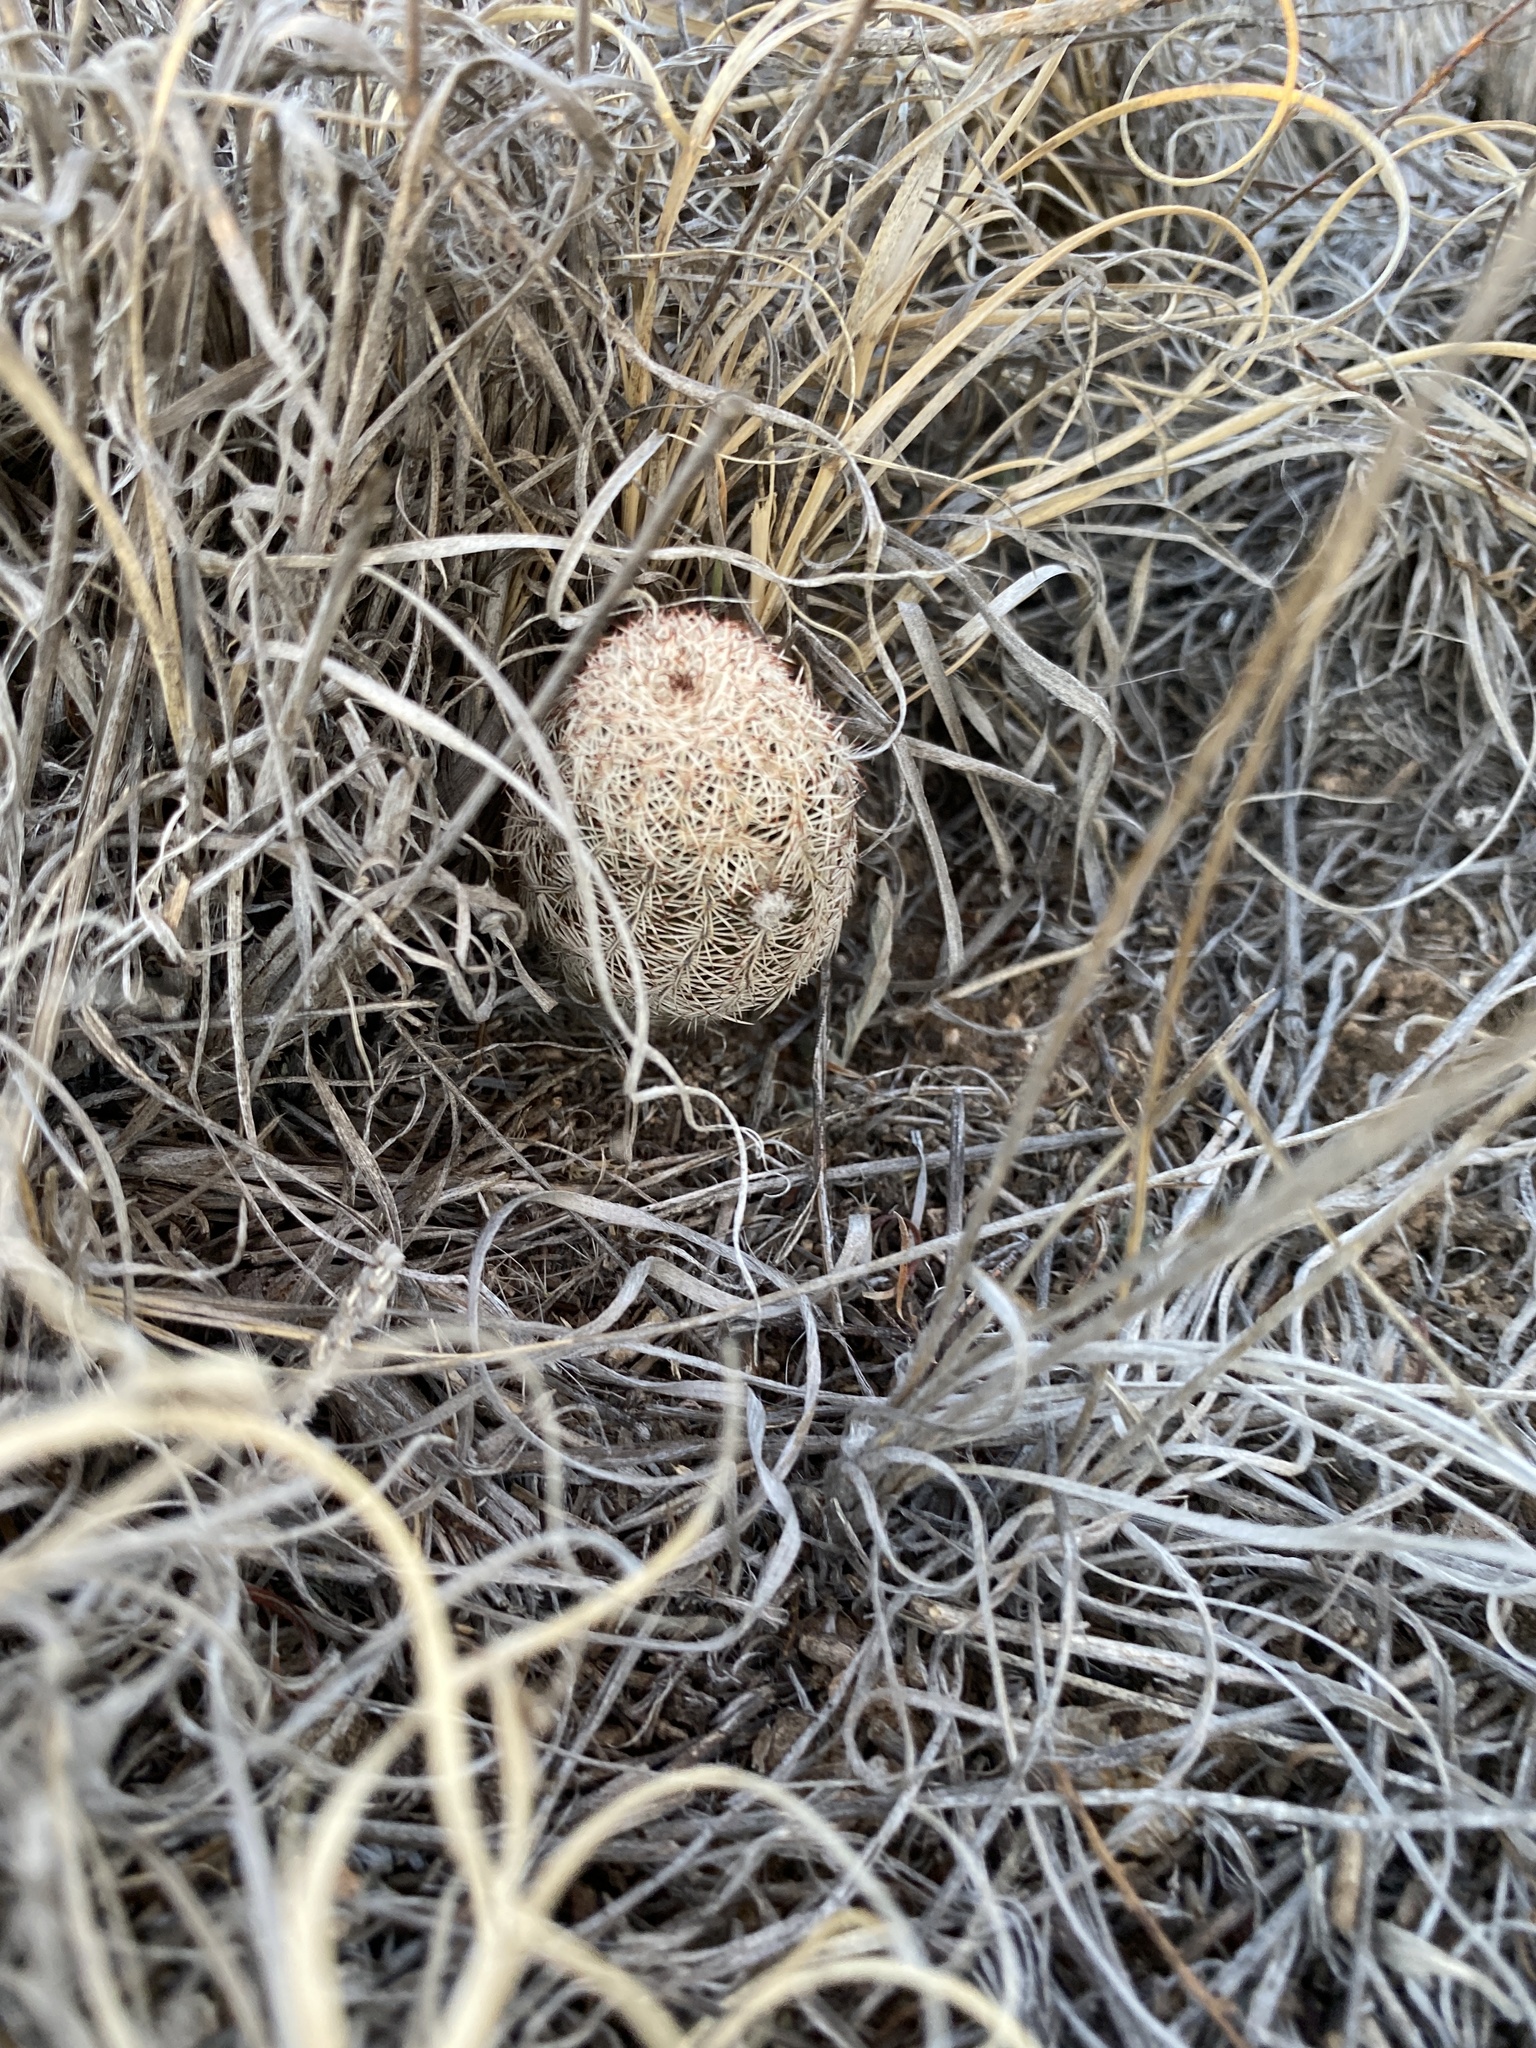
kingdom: Plantae
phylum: Tracheophyta
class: Magnoliopsida
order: Caryophyllales
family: Cactaceae
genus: Echinocereus
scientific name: Echinocereus reichenbachii
